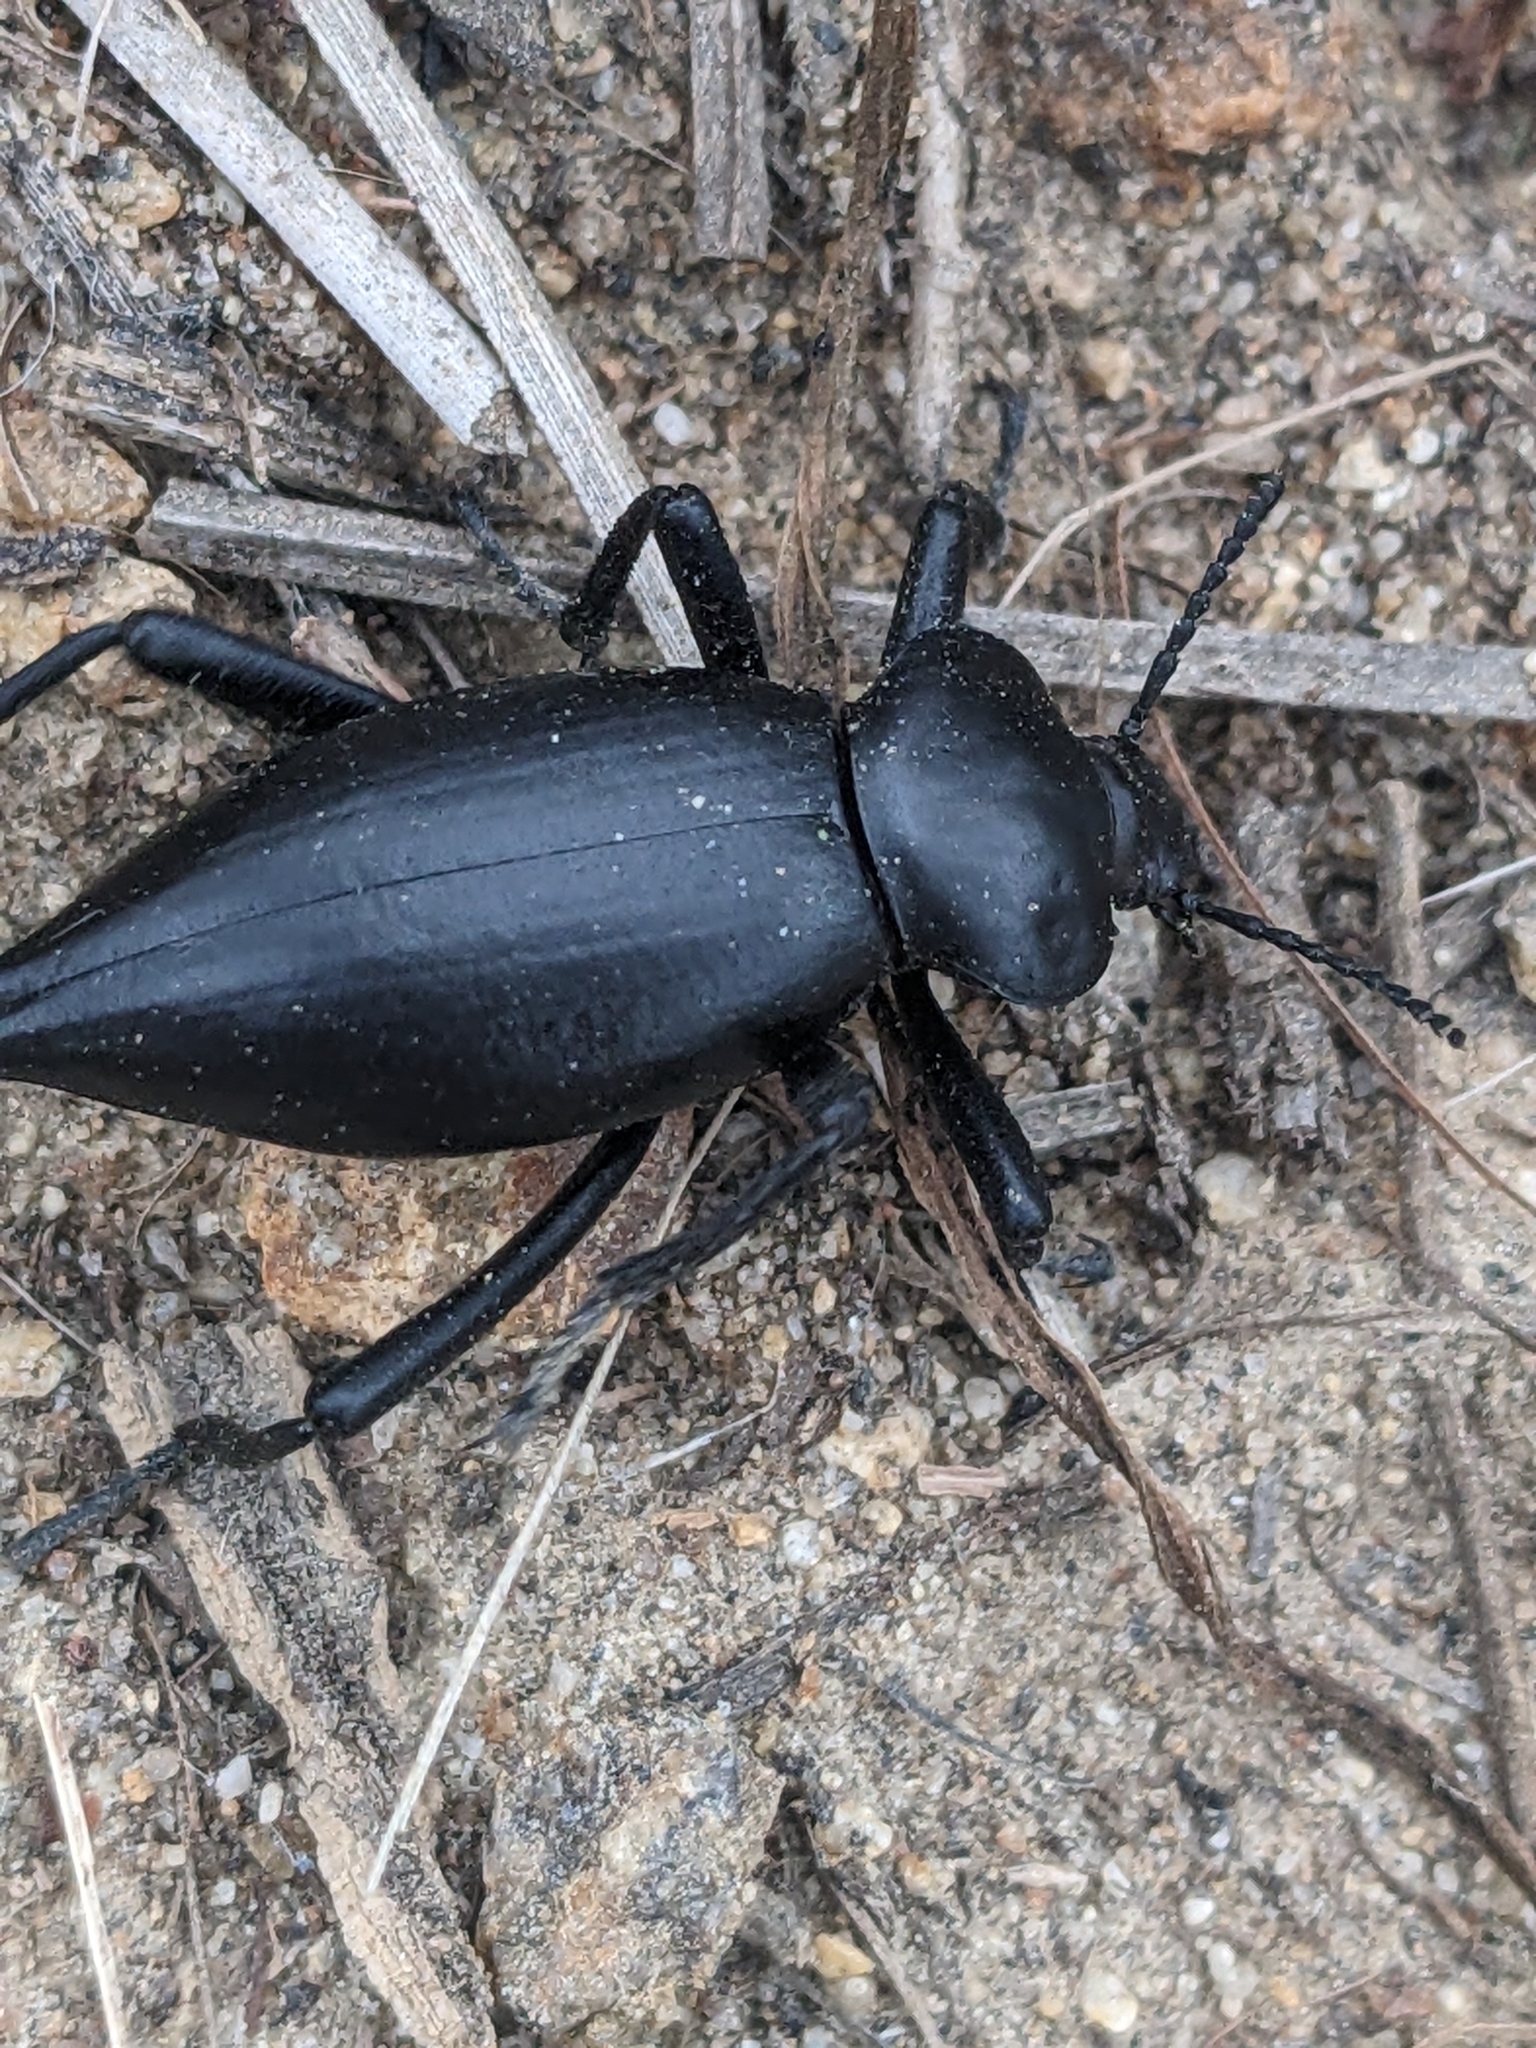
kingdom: Animalia
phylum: Arthropoda
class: Insecta
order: Coleoptera
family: Tenebrionidae
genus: Eleodes
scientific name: Eleodes acuticauda
